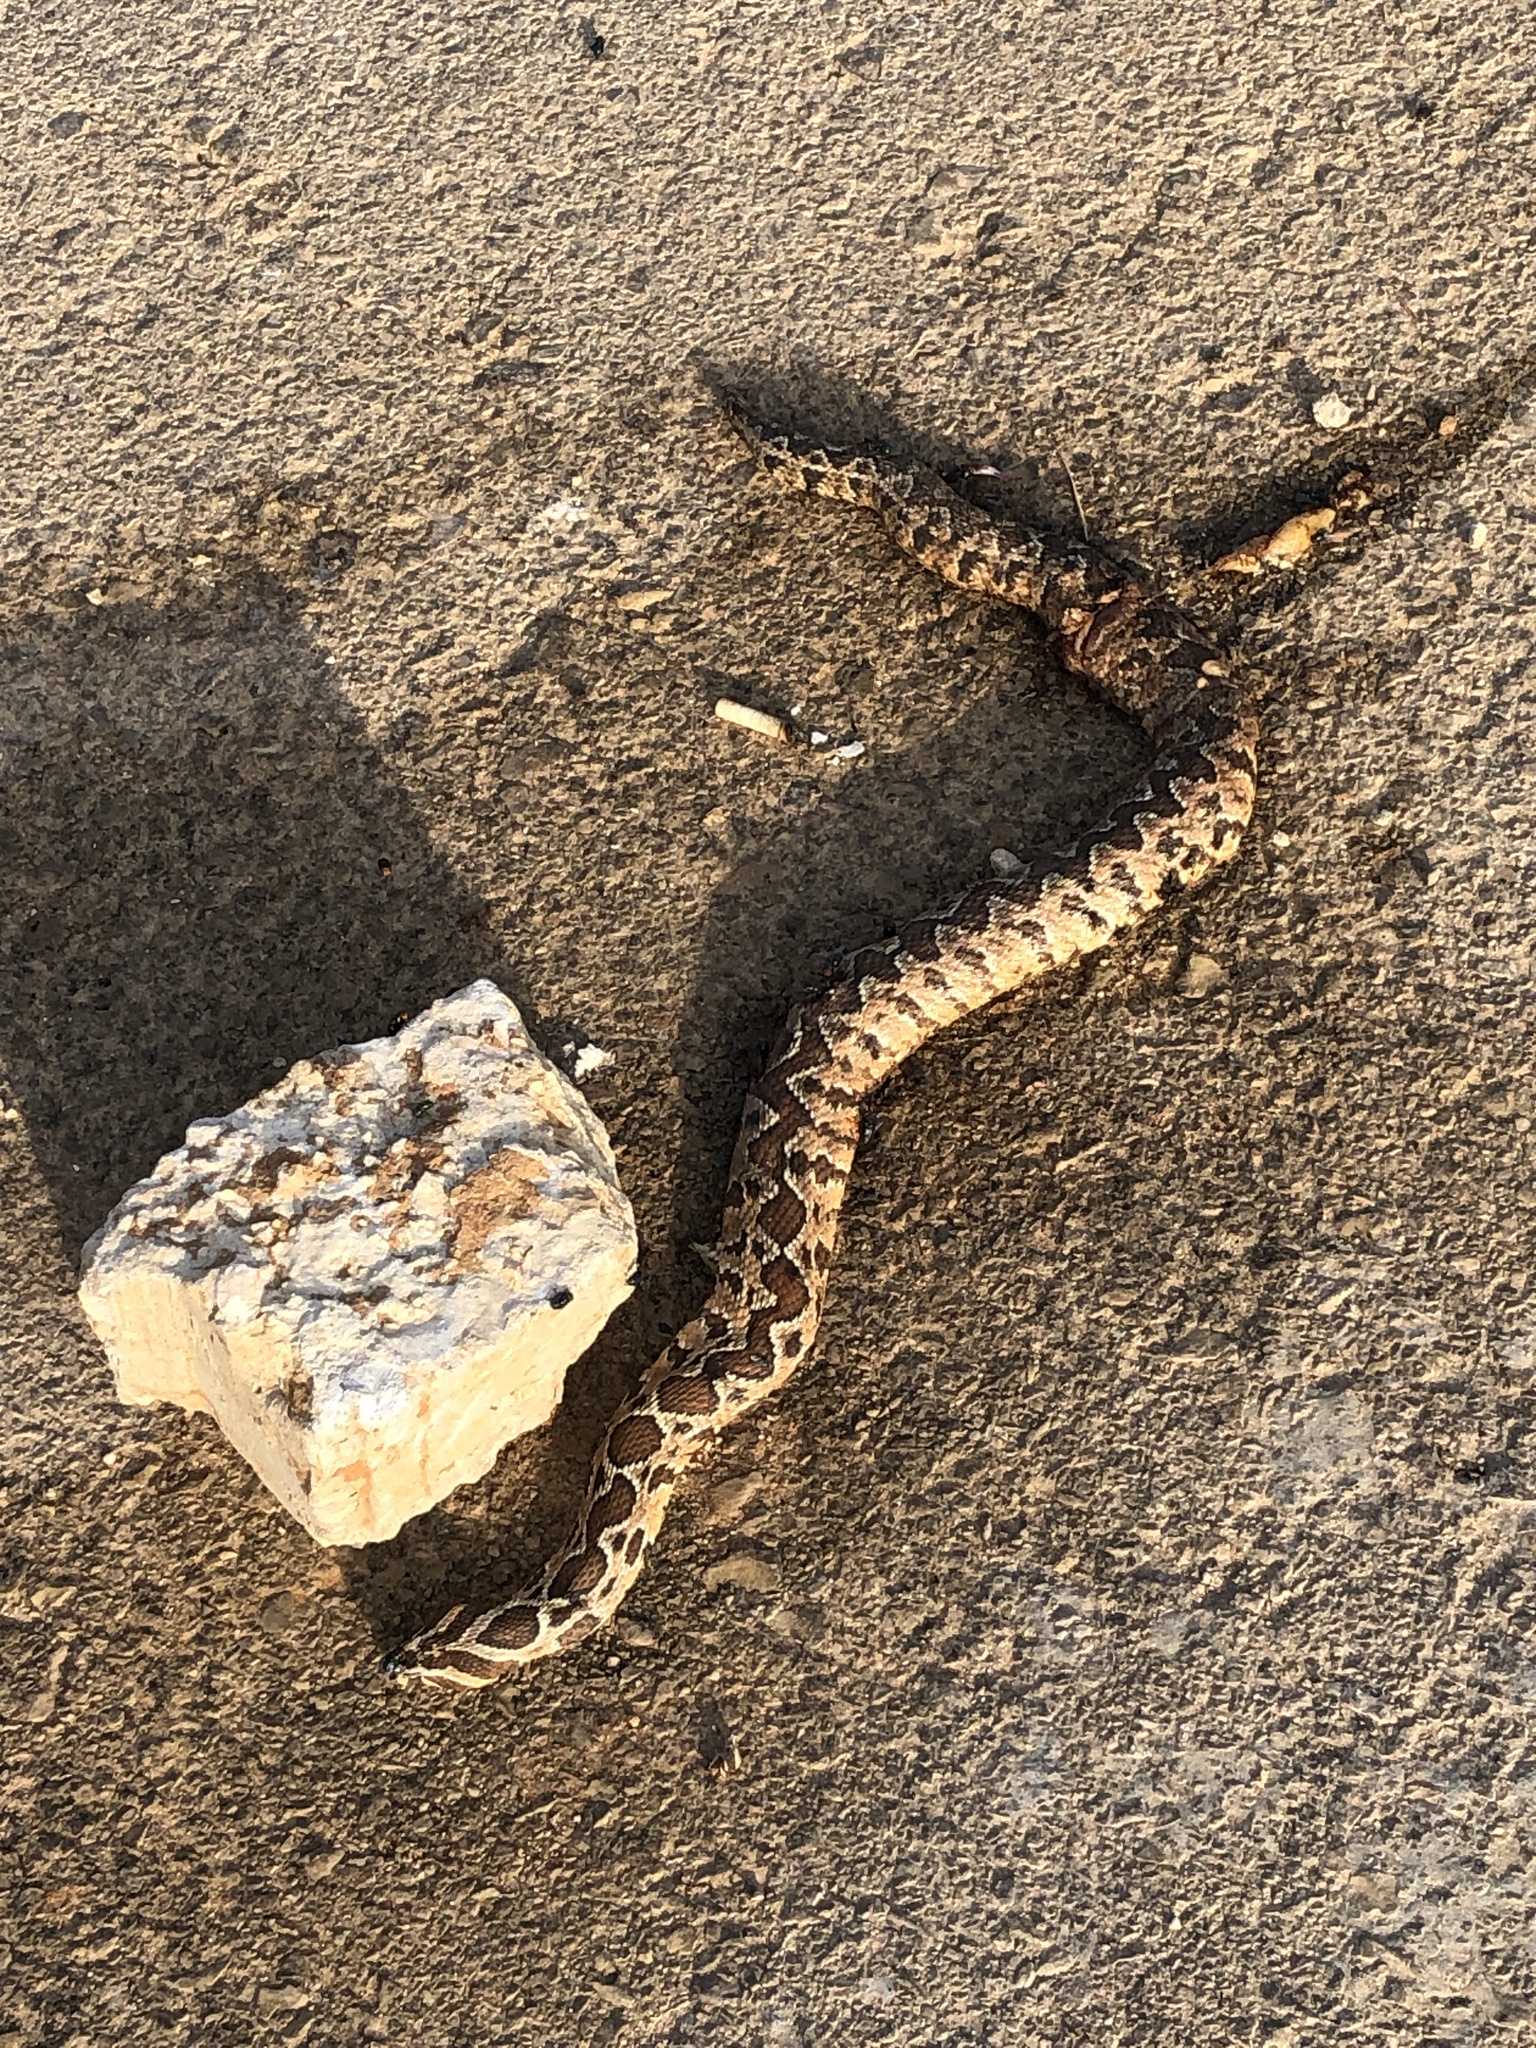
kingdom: Animalia
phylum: Chordata
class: Squamata
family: Viperidae
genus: Daboia
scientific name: Daboia palaestinae
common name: Palestine viper
